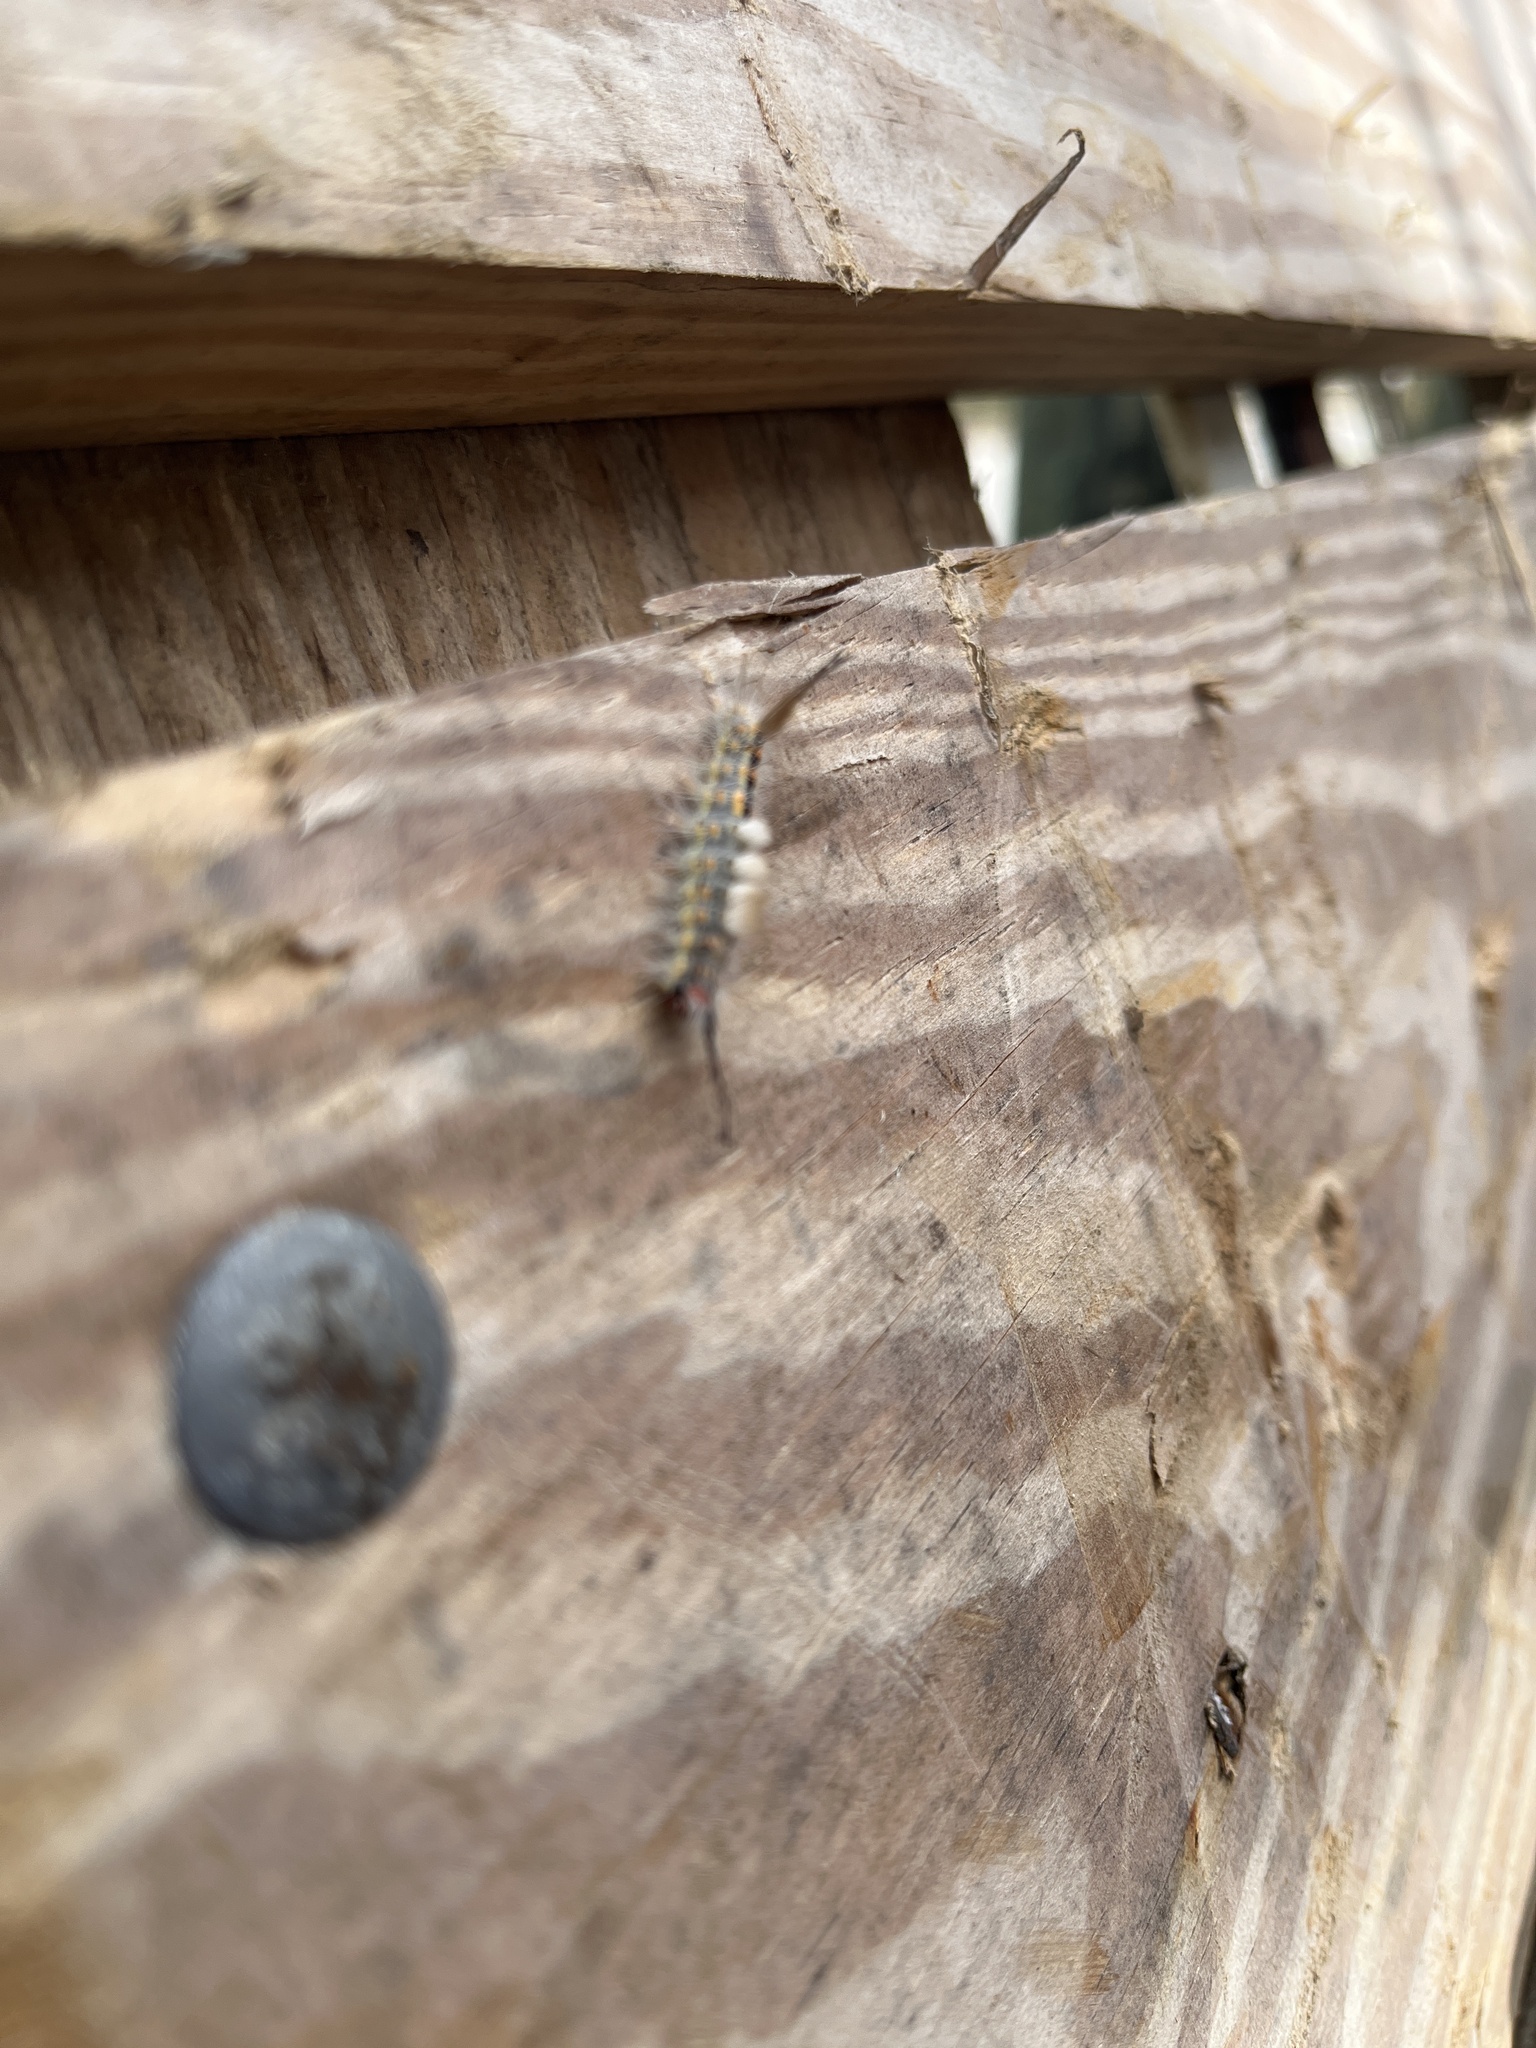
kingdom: Animalia
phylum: Arthropoda
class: Insecta
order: Lepidoptera
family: Erebidae
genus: Orgyia
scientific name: Orgyia detrita
